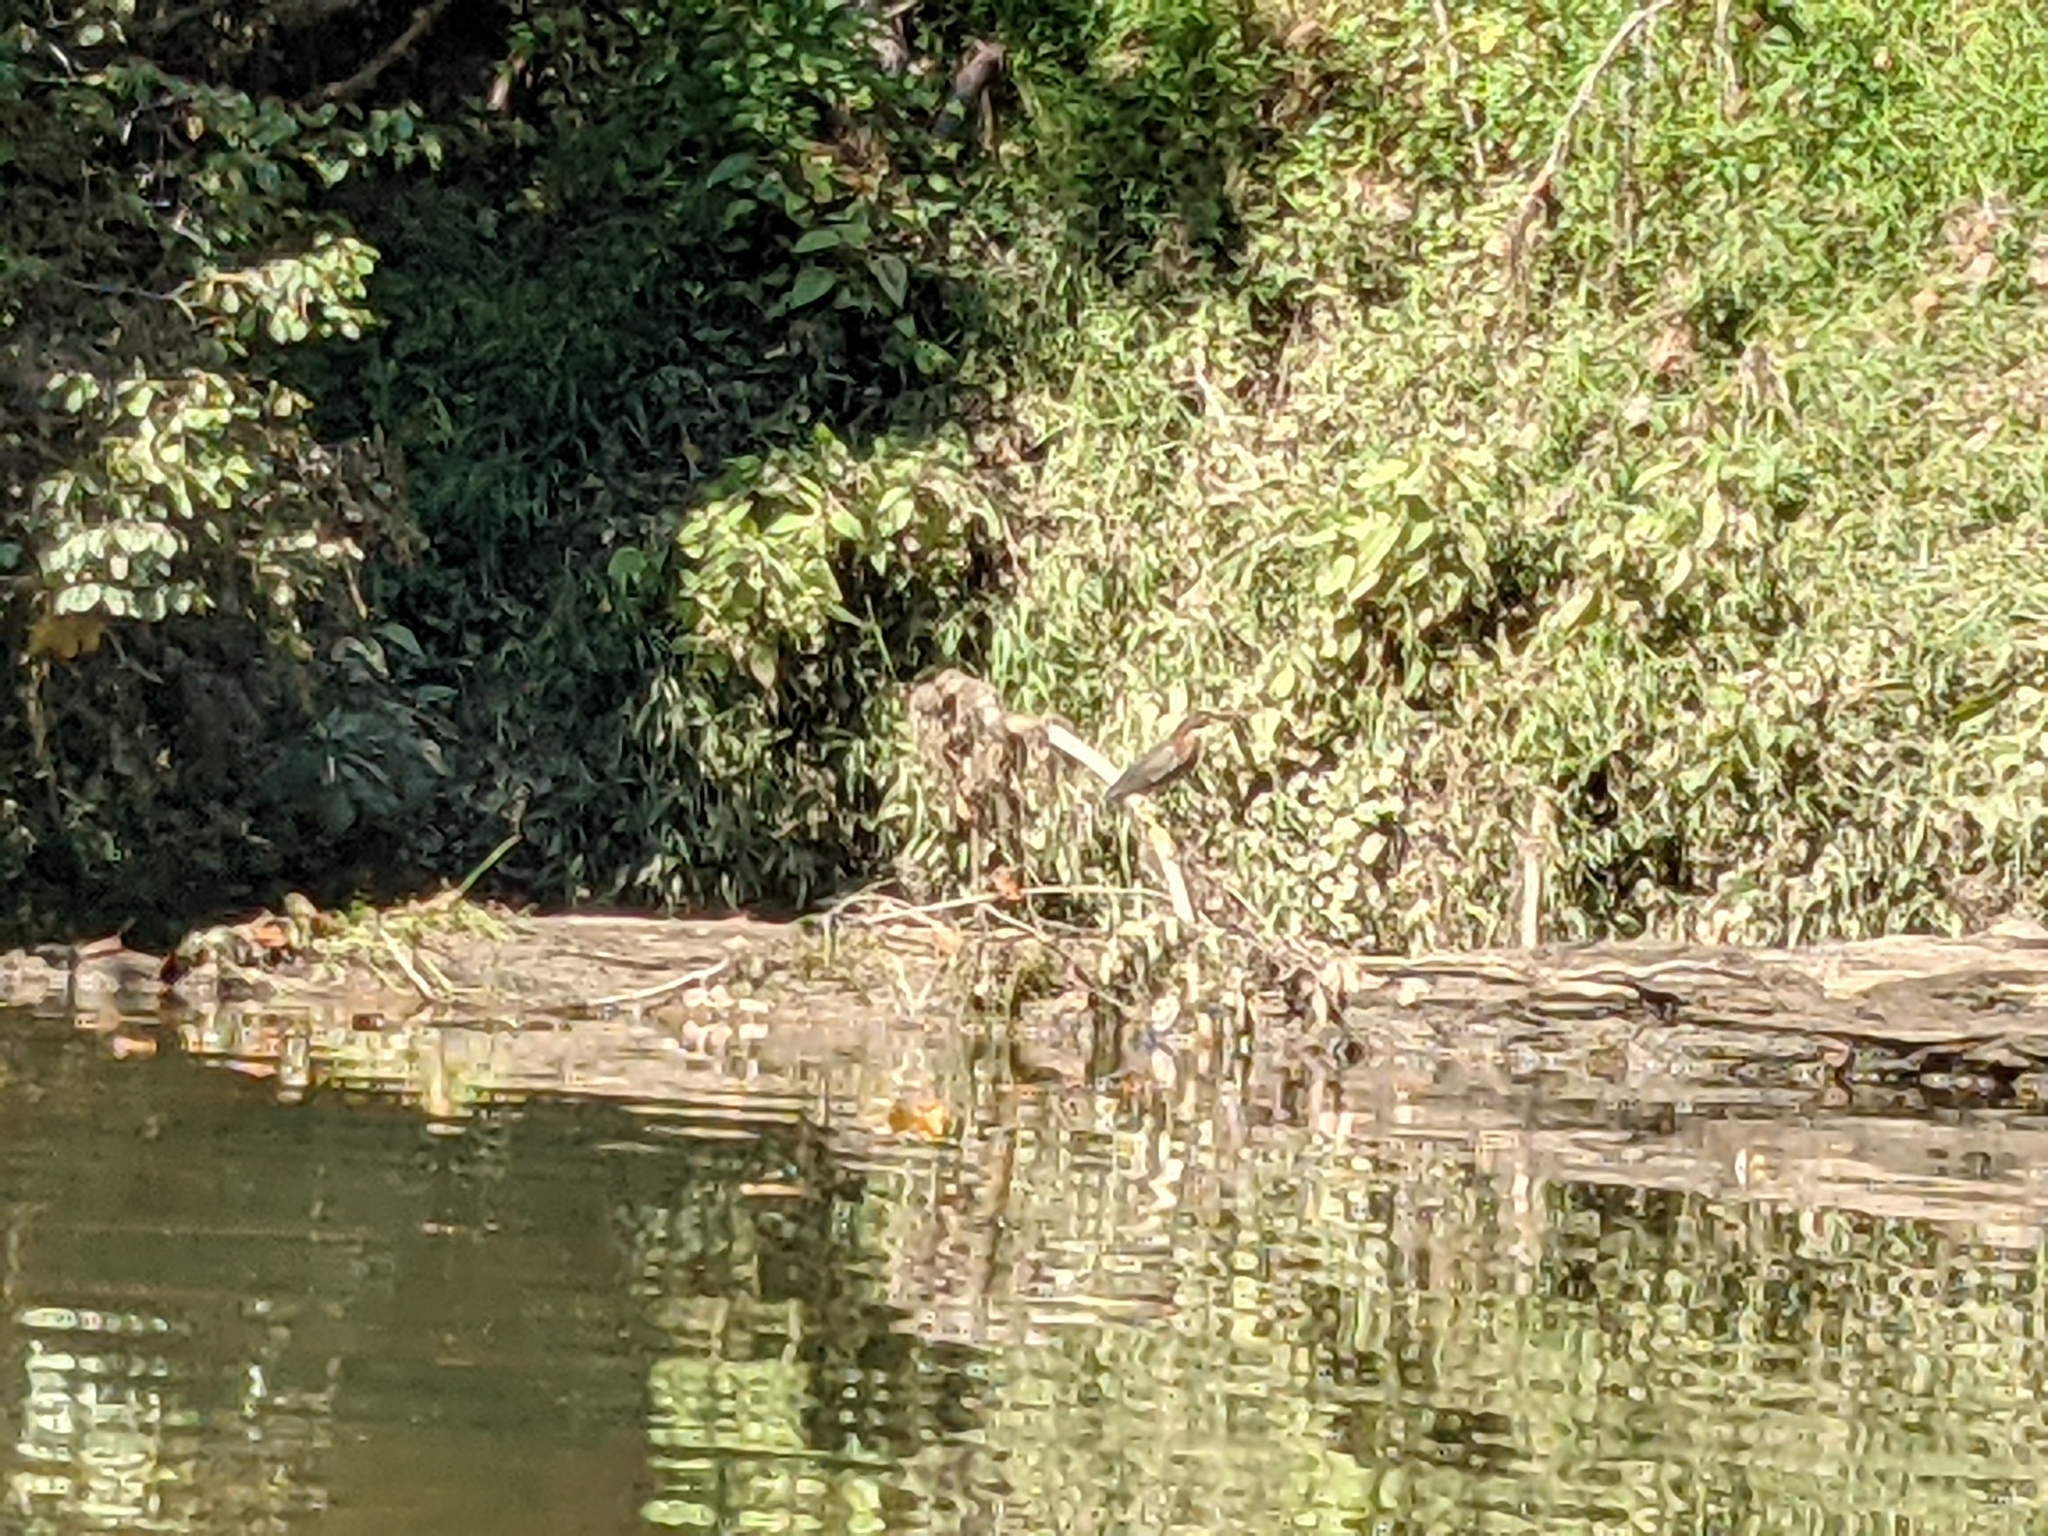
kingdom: Animalia
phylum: Chordata
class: Aves
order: Pelecaniformes
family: Ardeidae
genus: Butorides
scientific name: Butorides virescens
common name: Green heron
